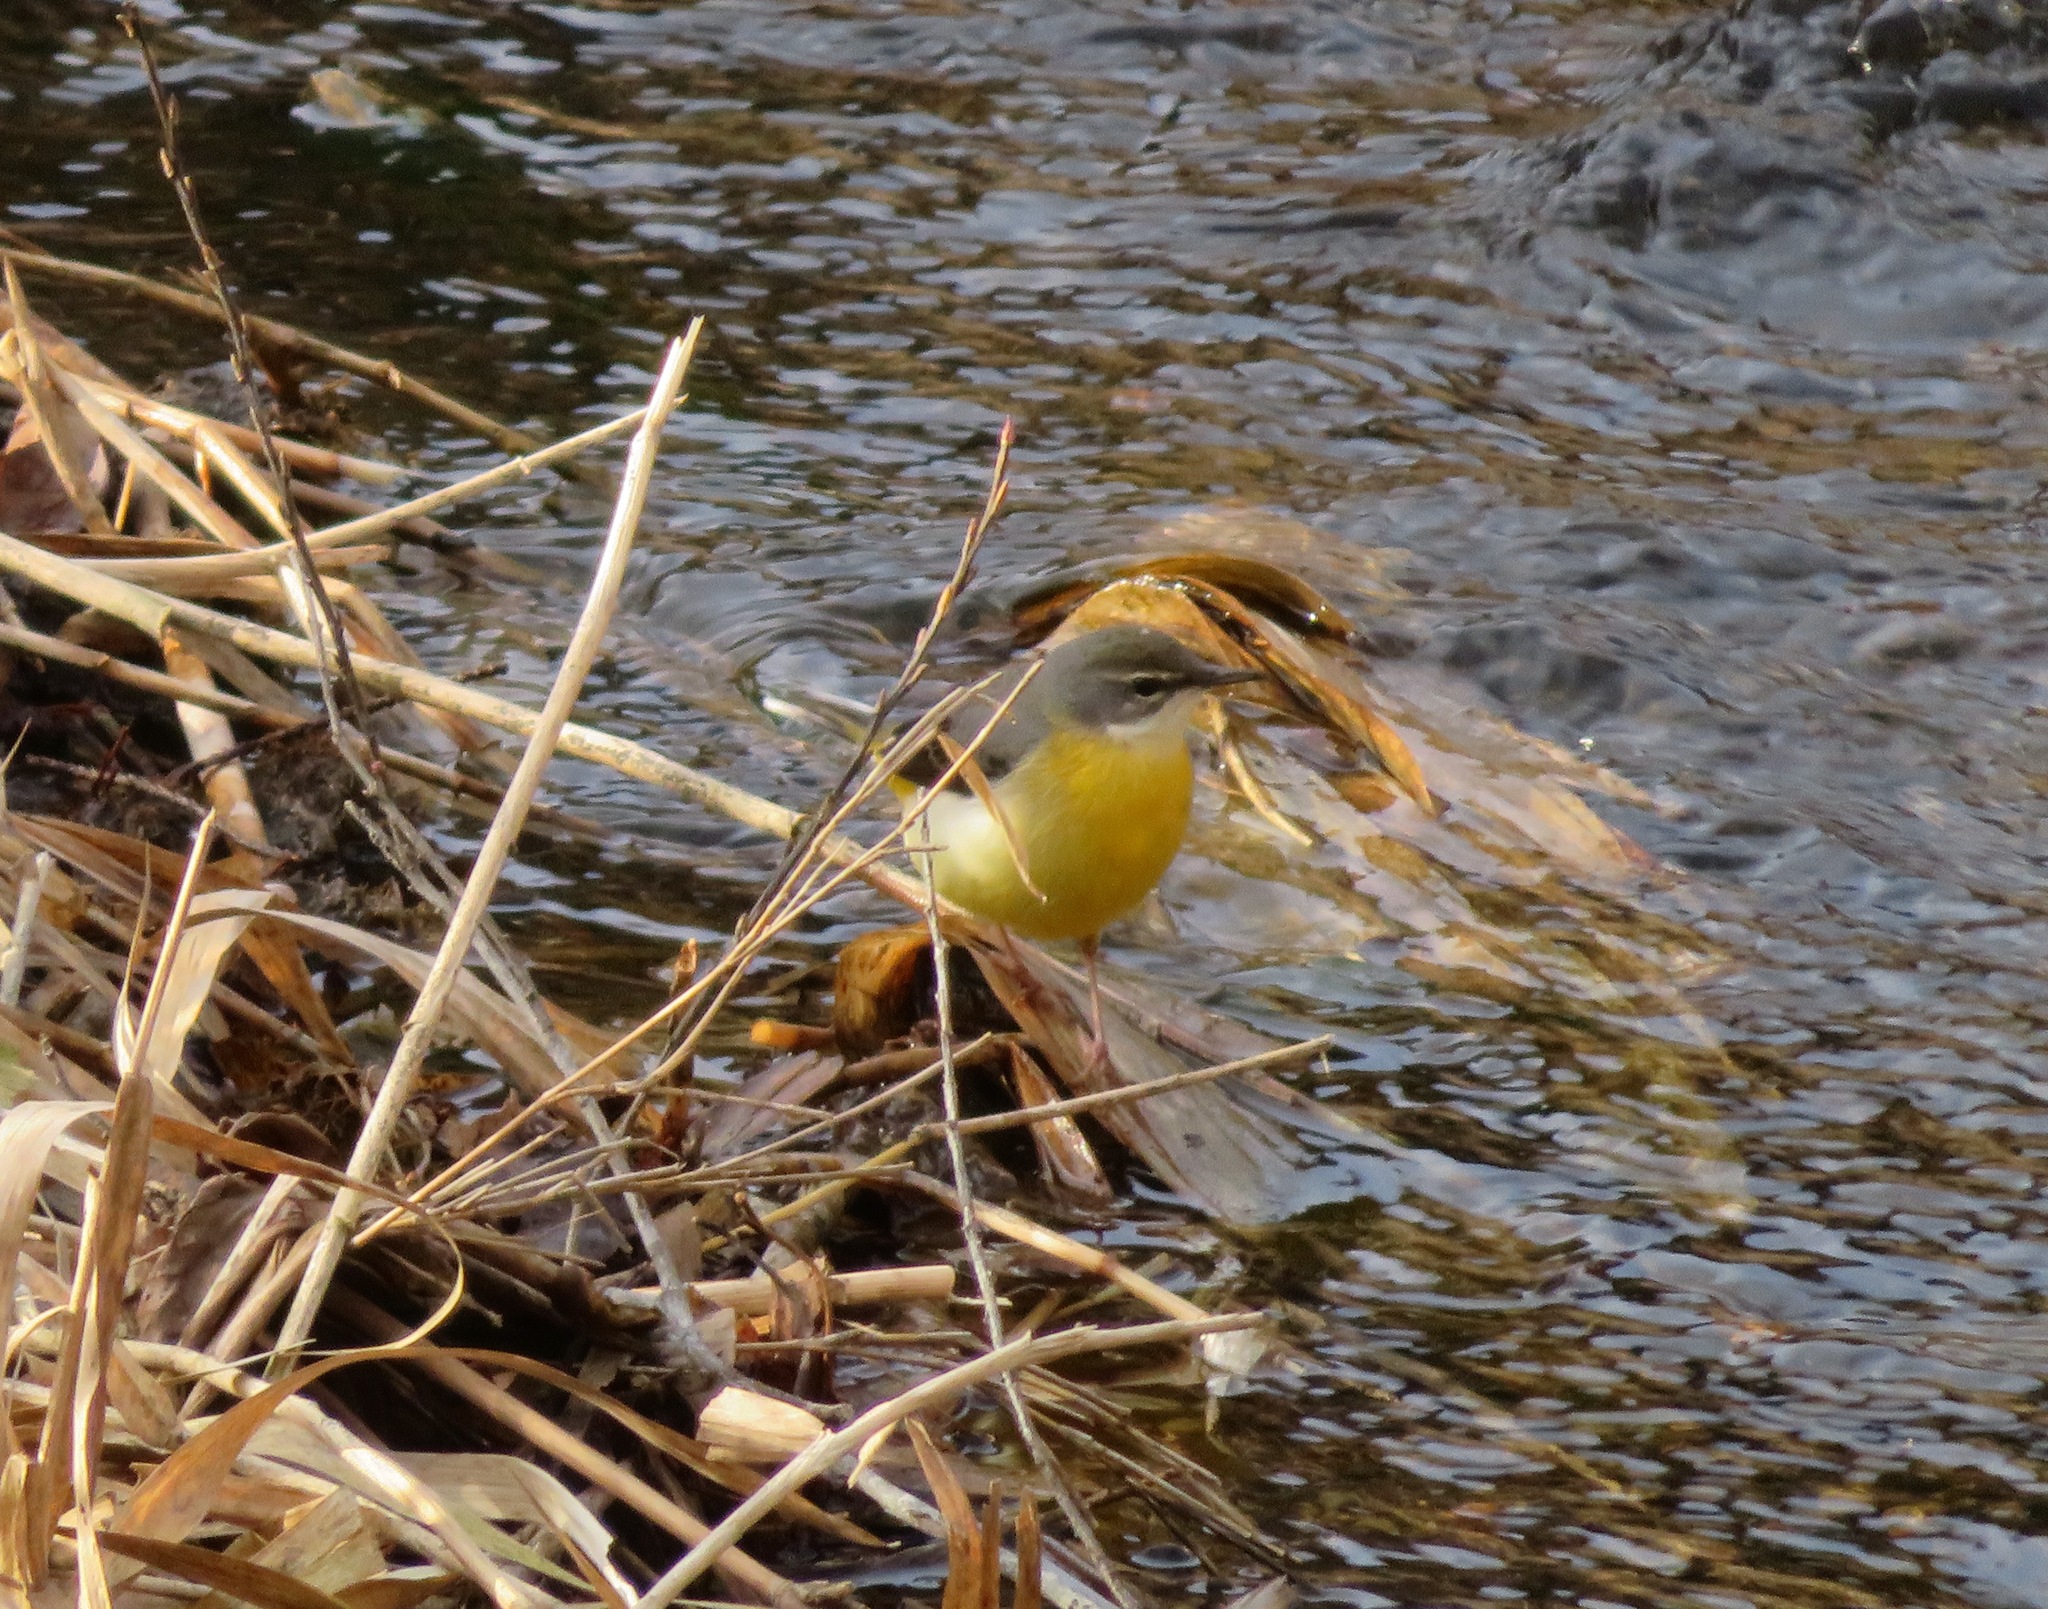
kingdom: Animalia
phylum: Chordata
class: Aves
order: Passeriformes
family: Motacillidae
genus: Motacilla
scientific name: Motacilla cinerea
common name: Grey wagtail
